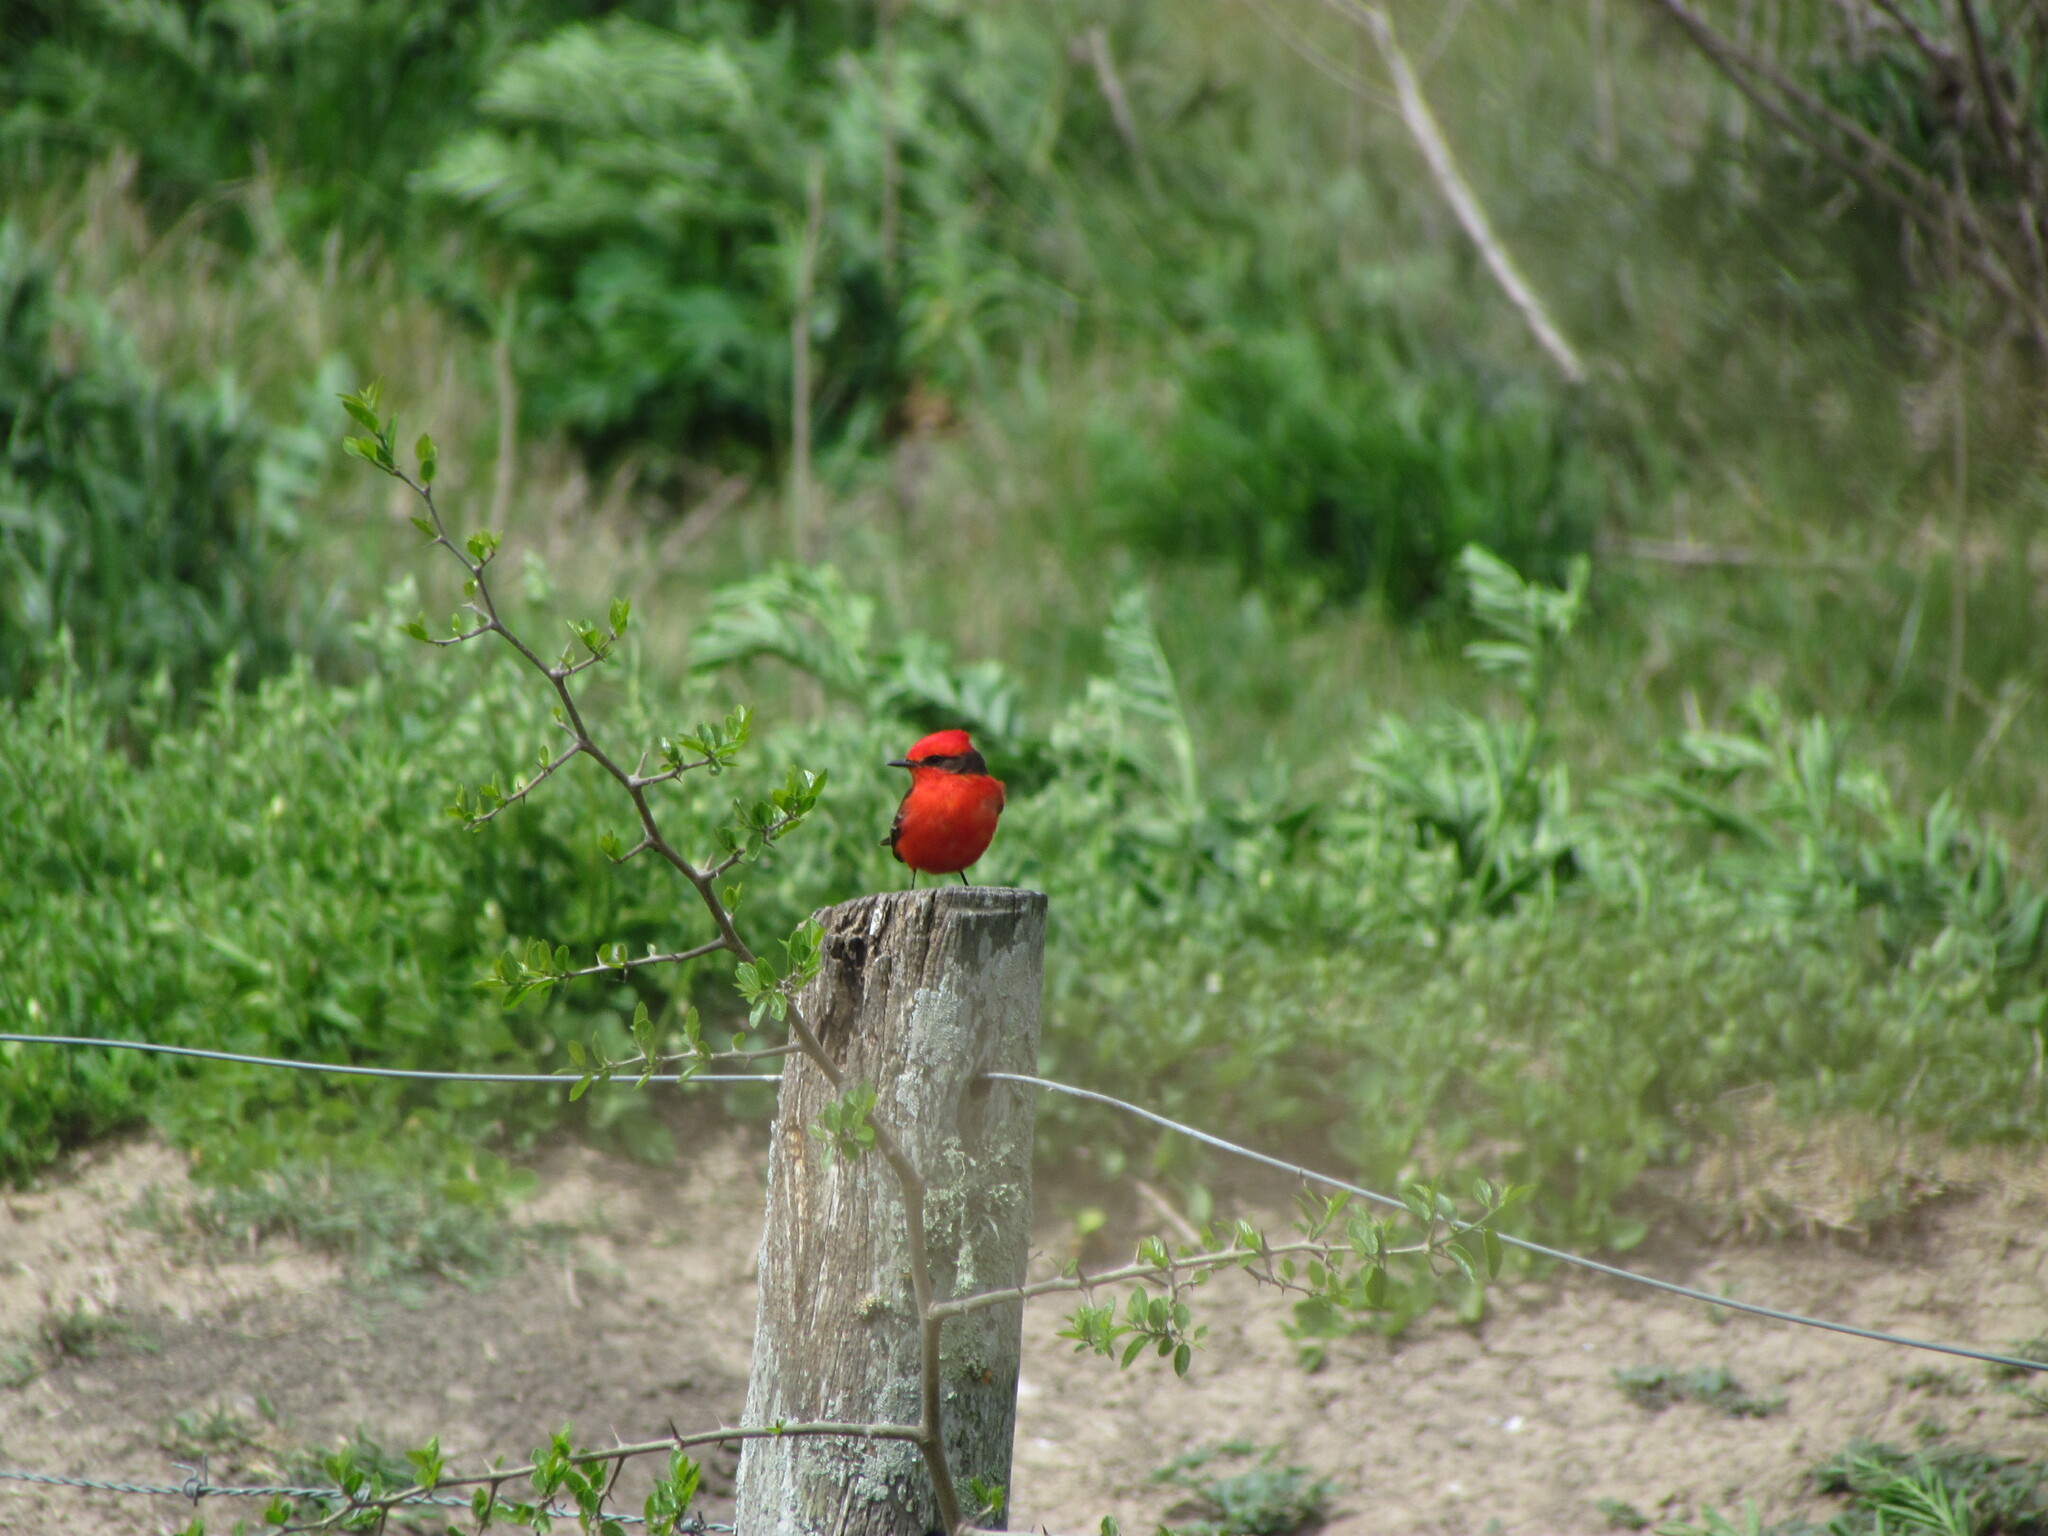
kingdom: Animalia
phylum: Chordata
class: Aves
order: Passeriformes
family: Tyrannidae
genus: Pyrocephalus
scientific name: Pyrocephalus rubinus
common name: Vermilion flycatcher
